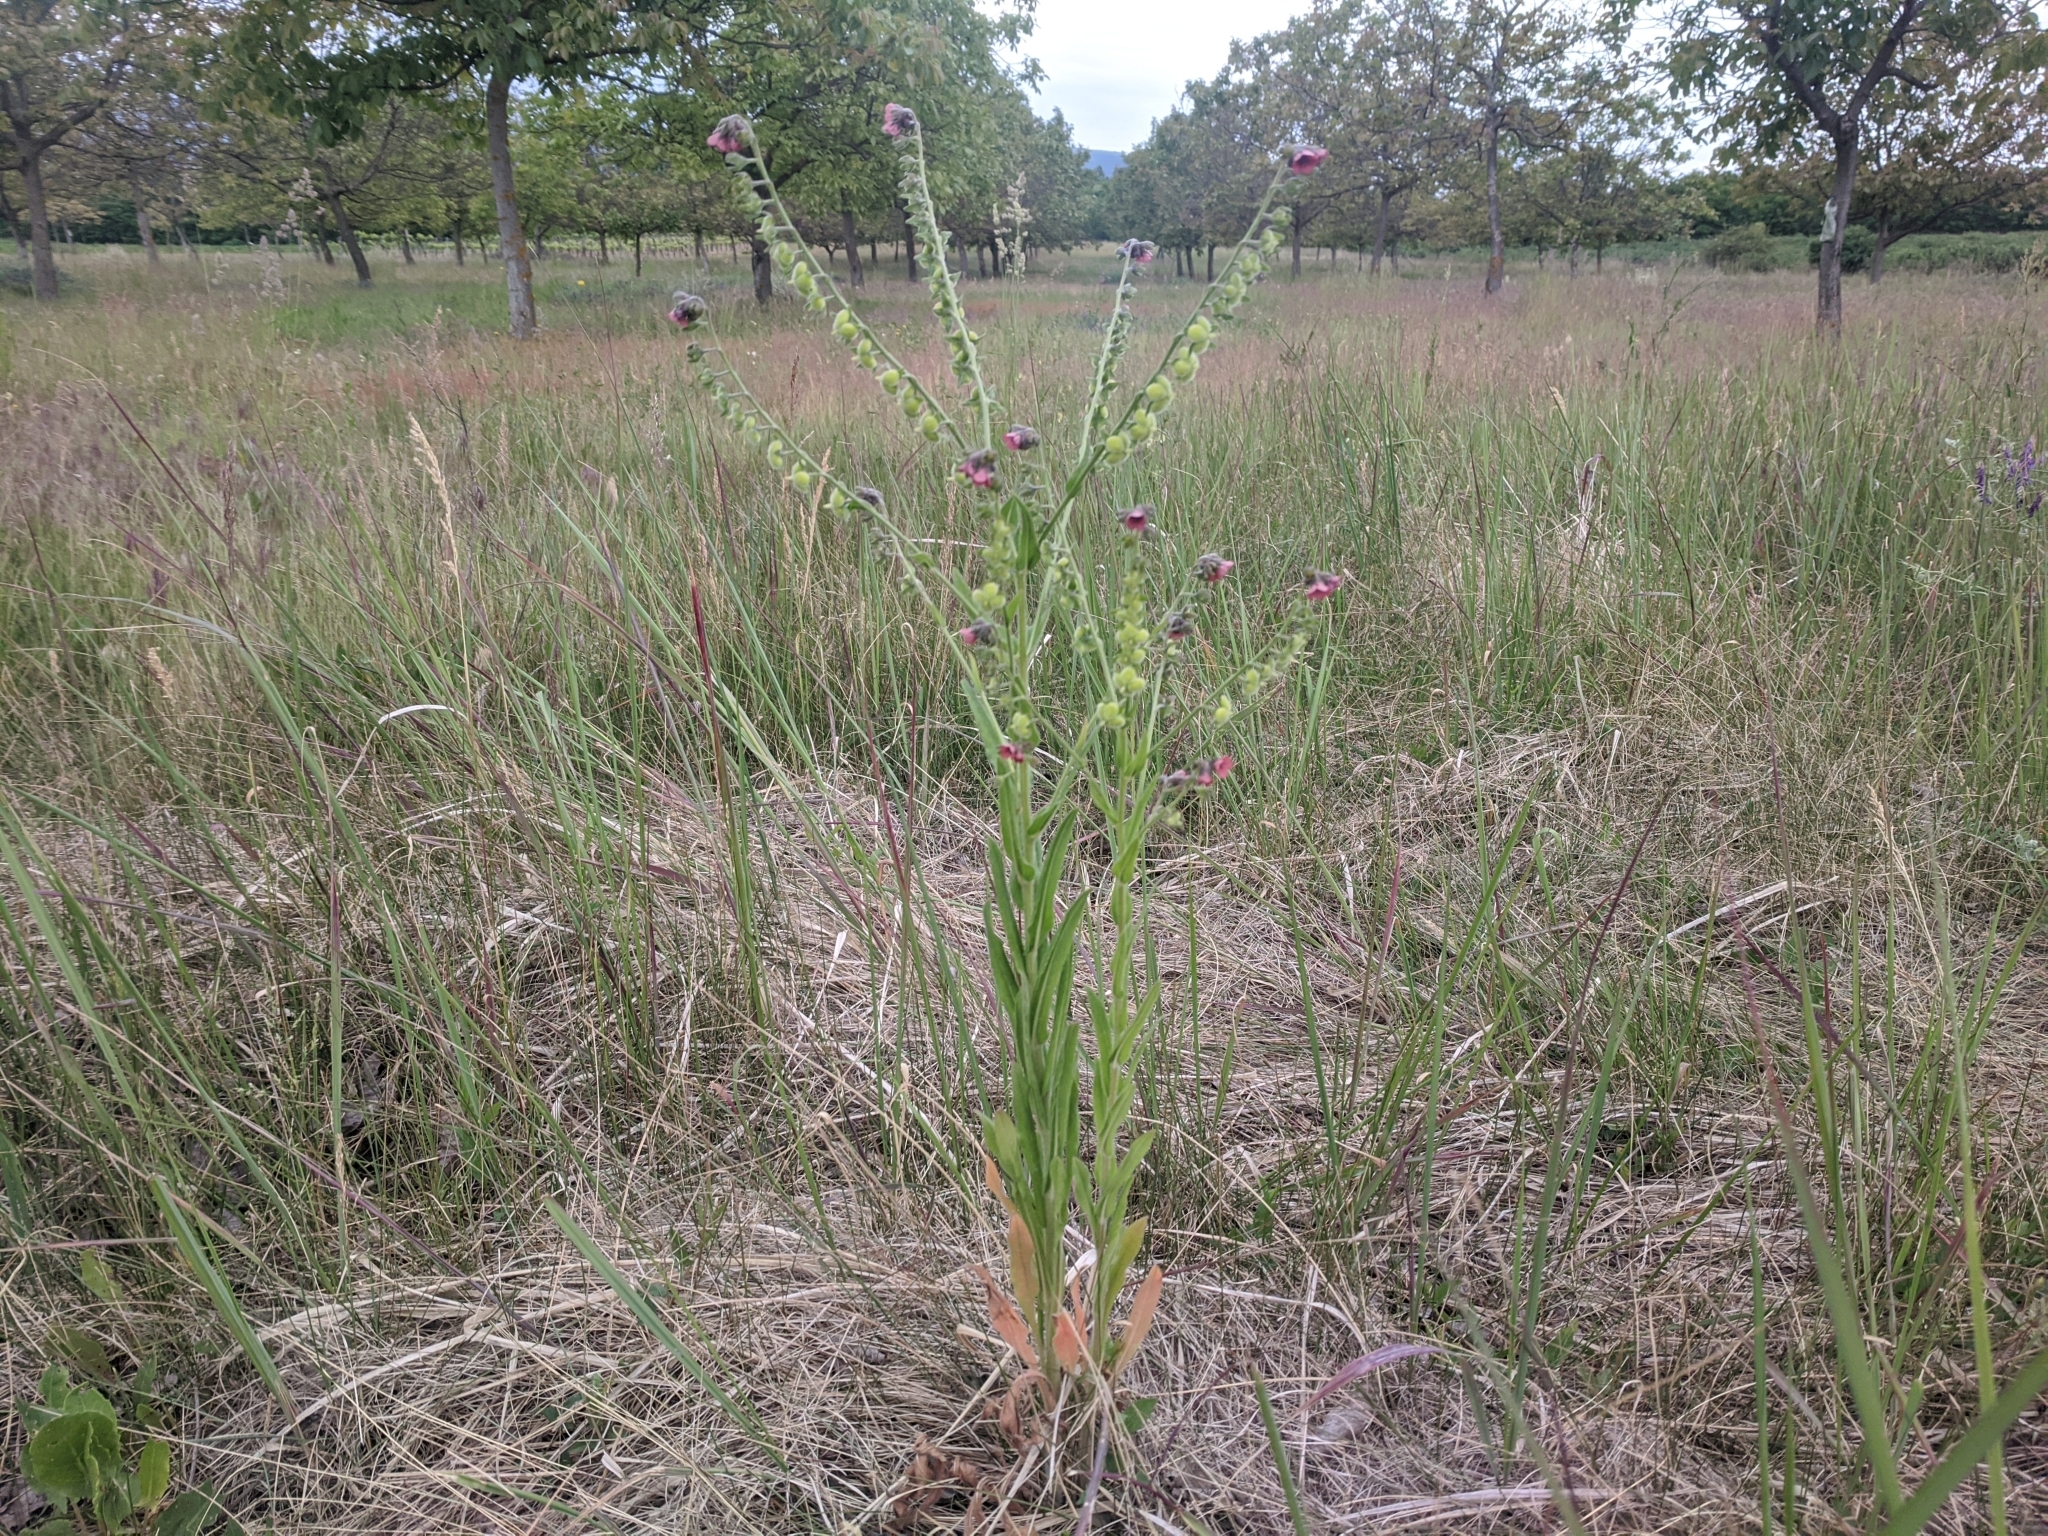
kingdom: Plantae
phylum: Tracheophyta
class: Magnoliopsida
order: Boraginales
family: Boraginaceae
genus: Cynoglossum
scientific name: Cynoglossum officinale
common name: Hound's-tongue
